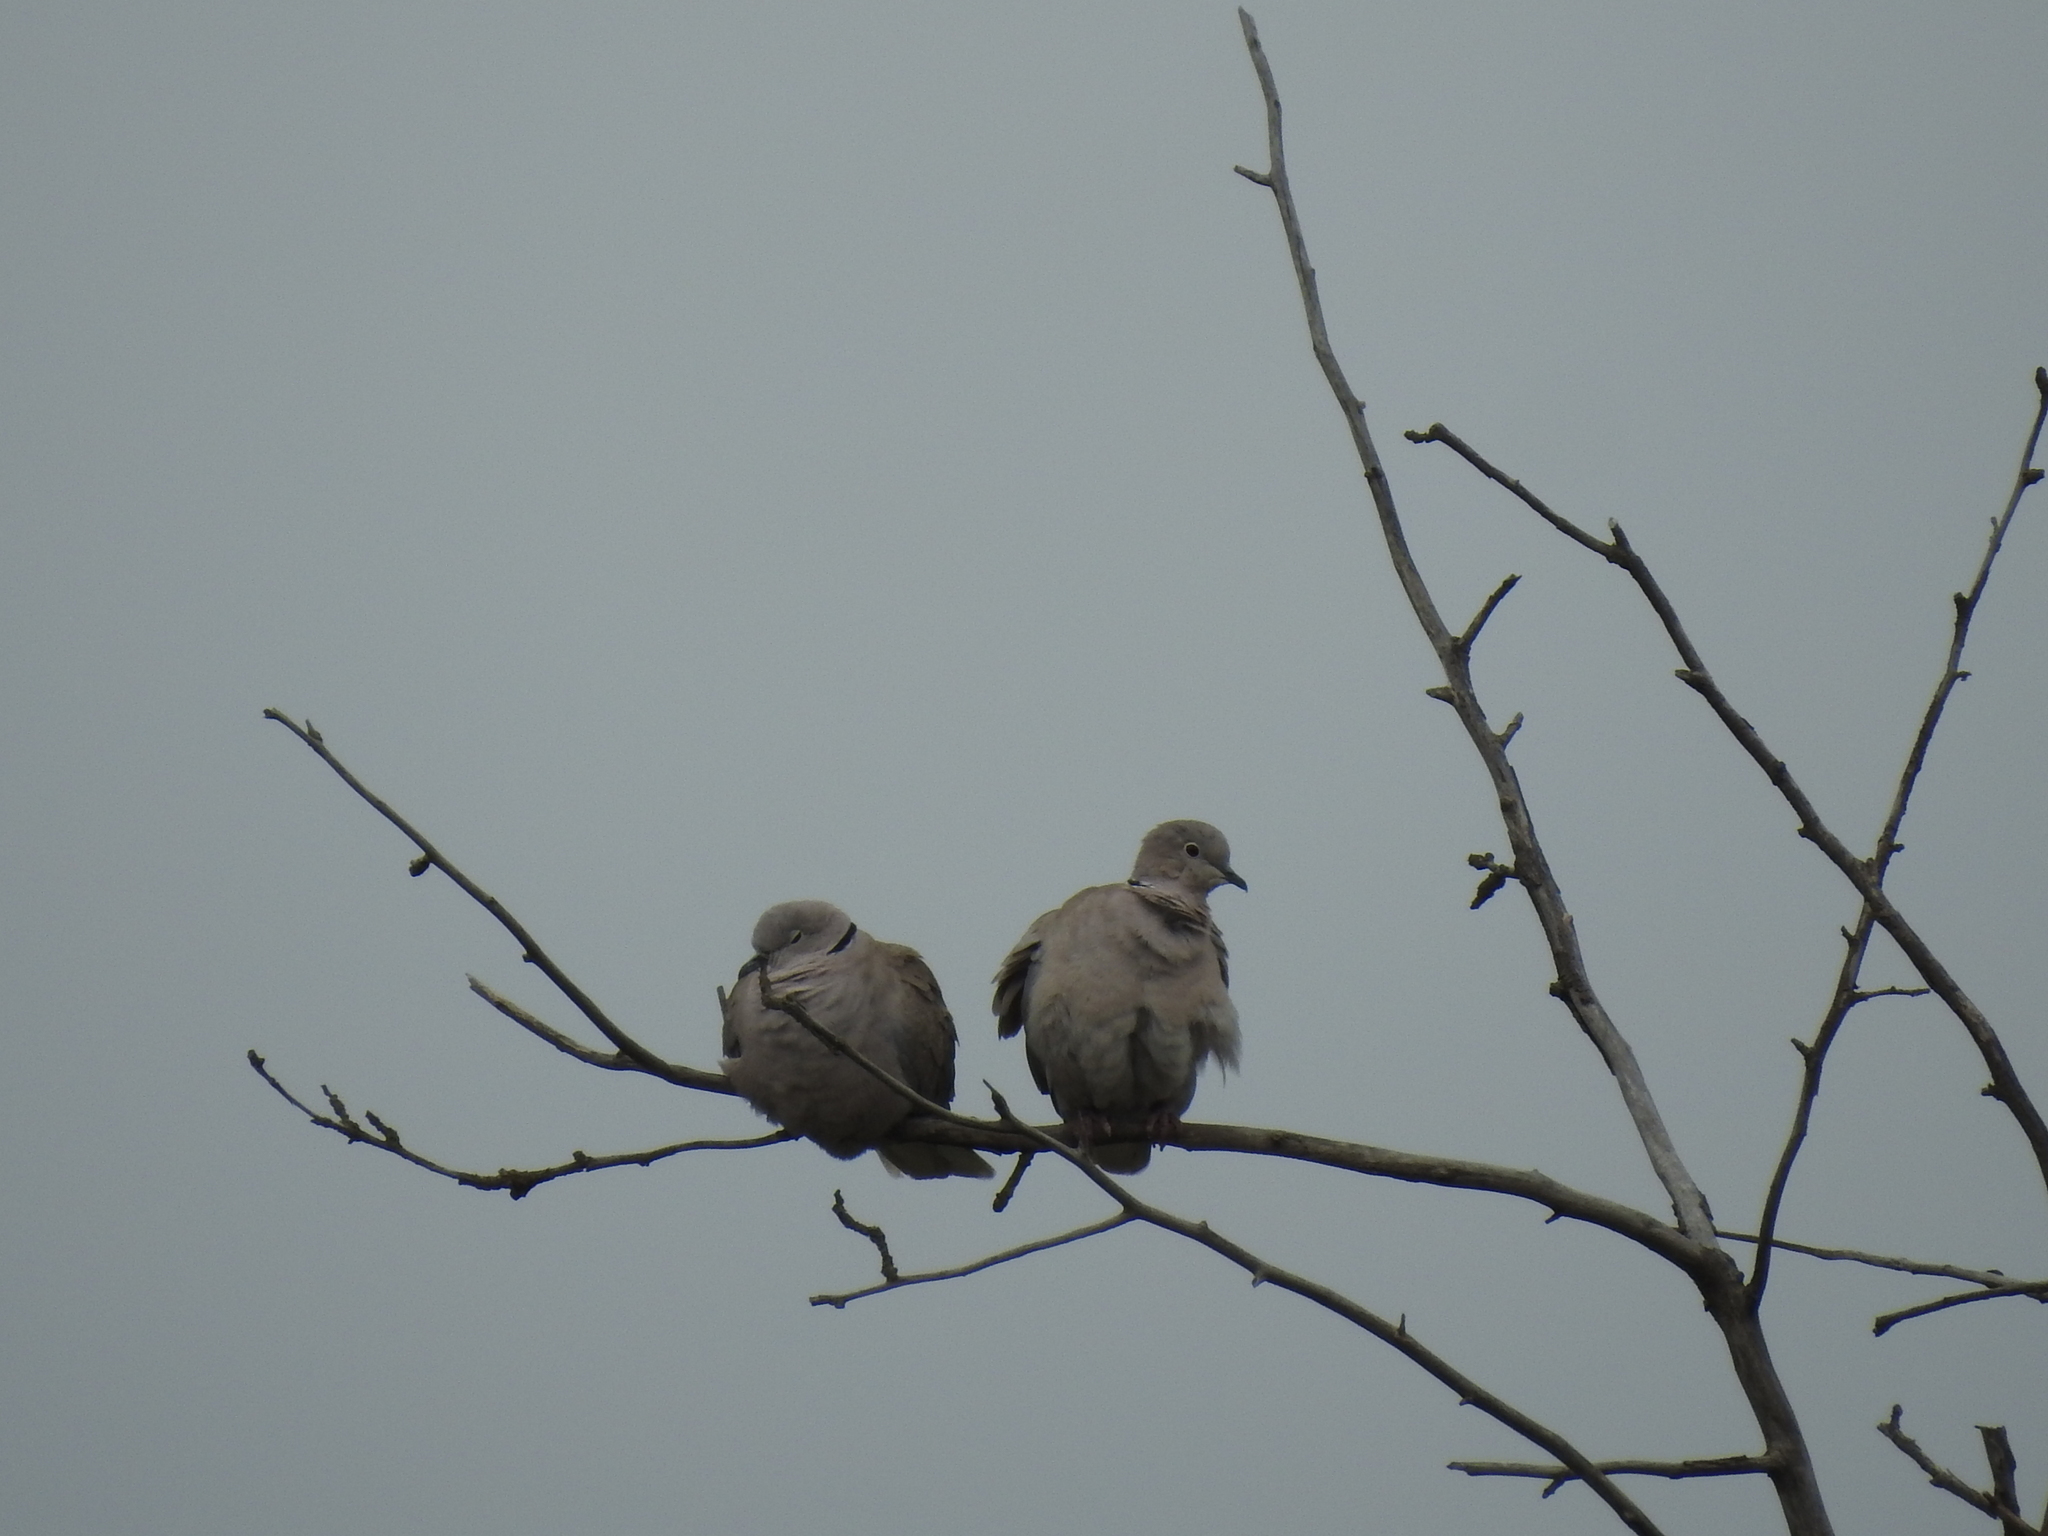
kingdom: Animalia
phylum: Chordata
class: Aves
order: Columbiformes
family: Columbidae
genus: Streptopelia
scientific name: Streptopelia decaocto
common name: Eurasian collared dove
